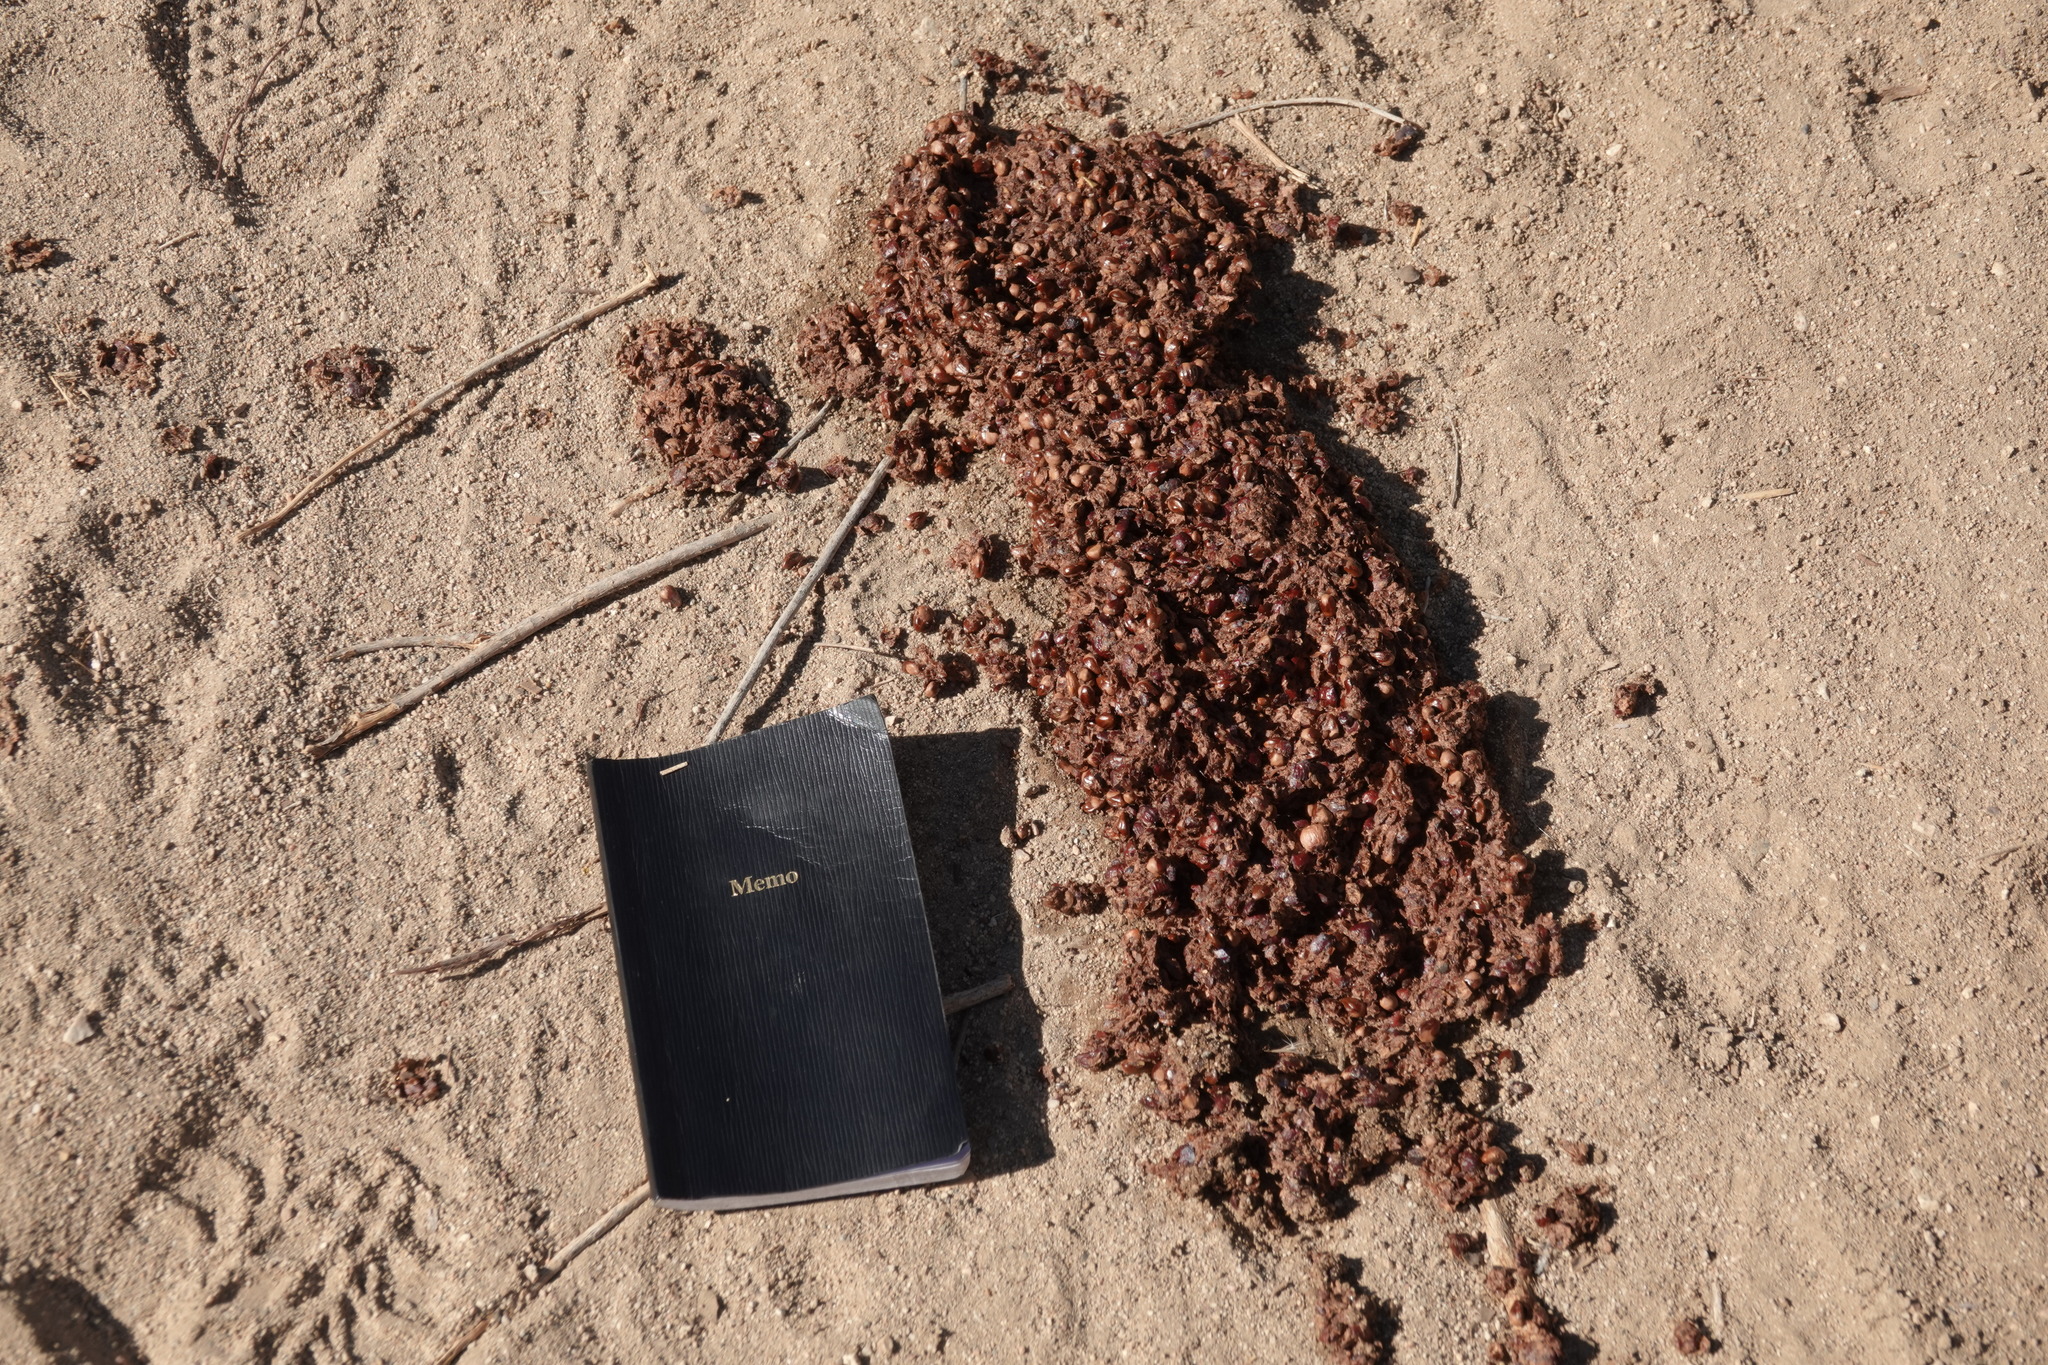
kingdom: Animalia
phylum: Chordata
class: Mammalia
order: Carnivora
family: Ursidae
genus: Ursus
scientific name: Ursus americanus
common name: American black bear
